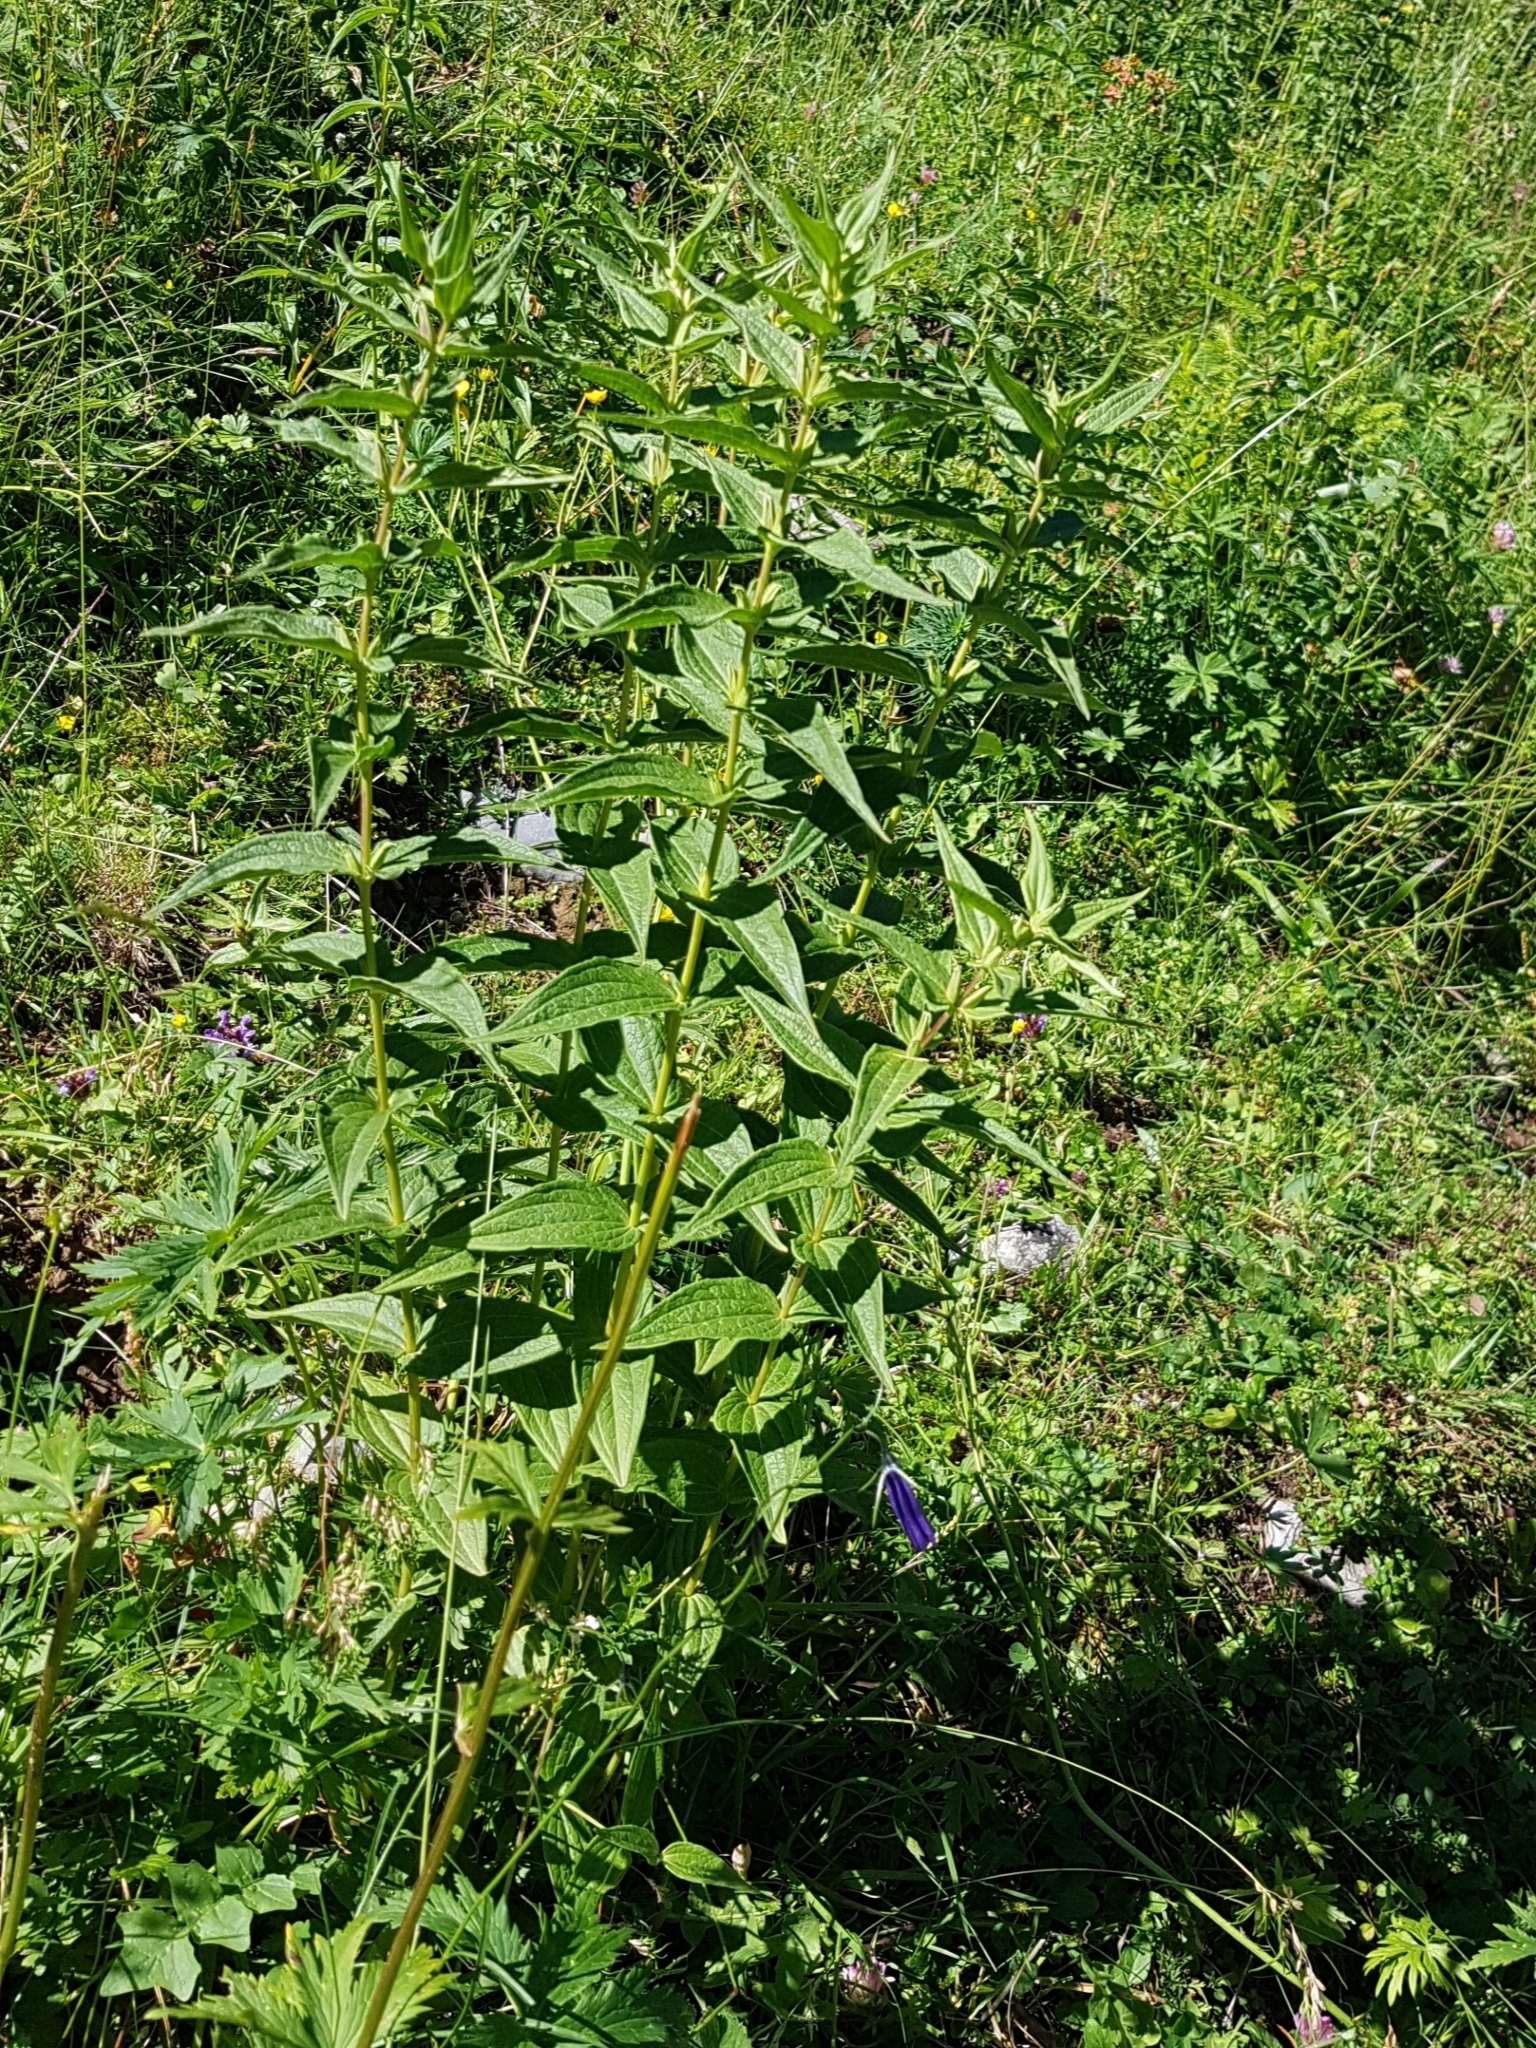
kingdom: Plantae
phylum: Tracheophyta
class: Magnoliopsida
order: Gentianales
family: Gentianaceae
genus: Gentiana
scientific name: Gentiana asclepiadea
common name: Willow gentian
